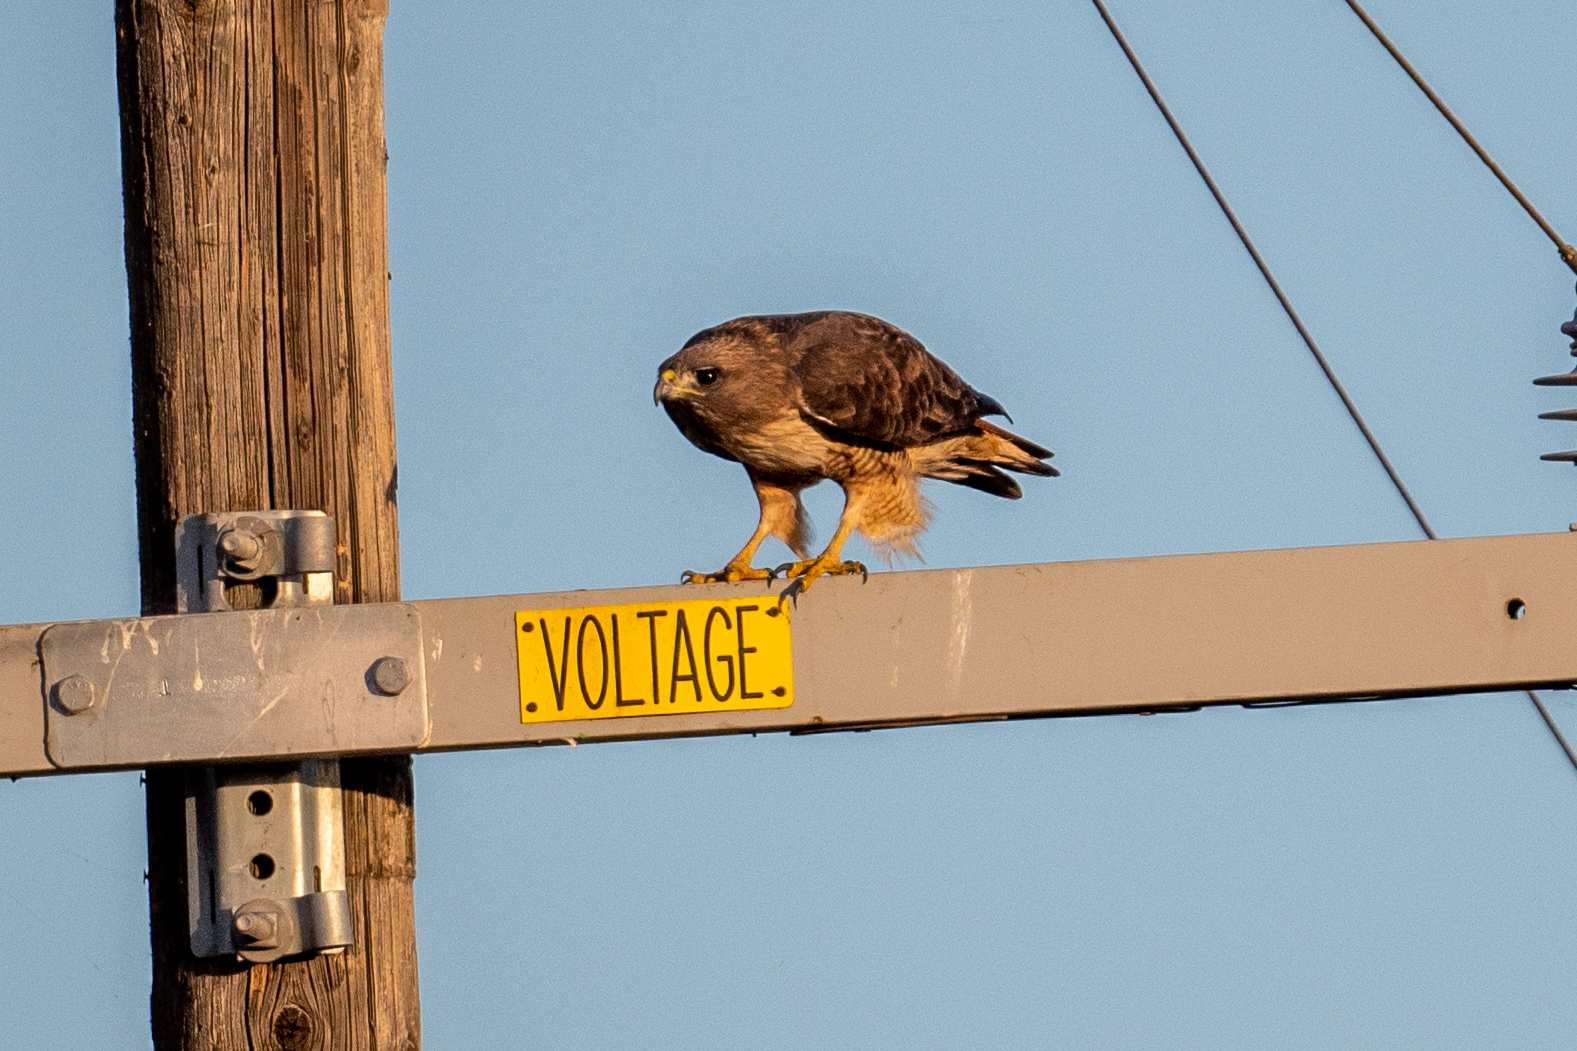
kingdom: Animalia
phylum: Chordata
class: Aves
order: Accipitriformes
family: Accipitridae
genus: Buteo
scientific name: Buteo jamaicensis
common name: Red-tailed hawk
